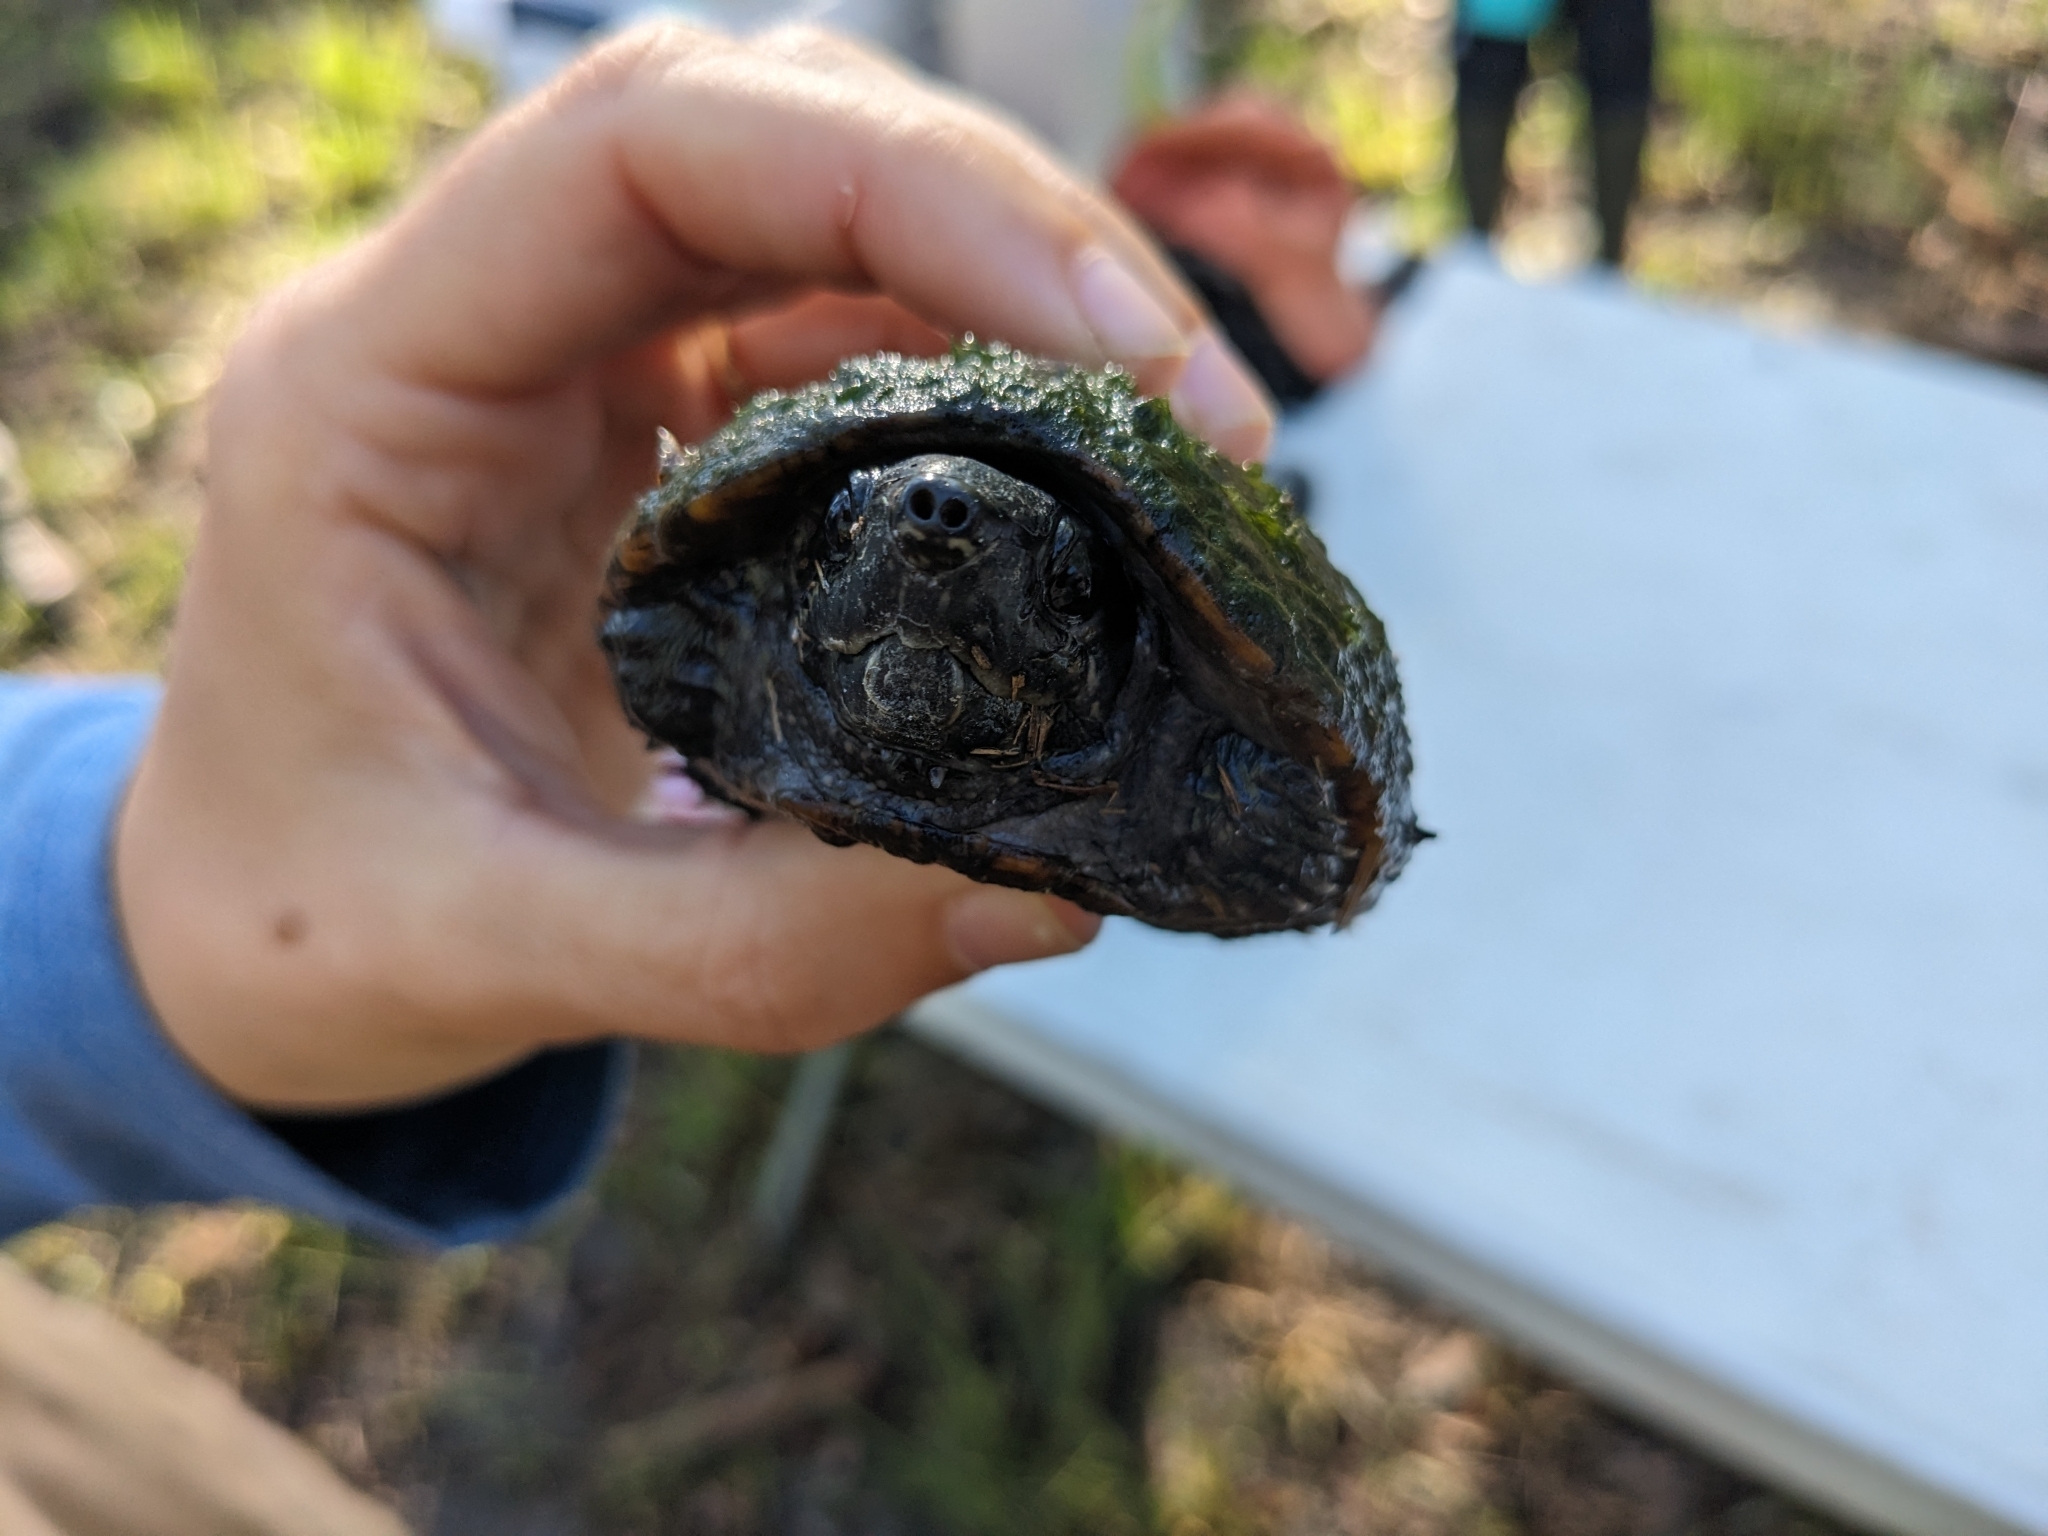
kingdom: Animalia
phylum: Chordata
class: Testudines
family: Kinosternidae
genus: Sternotherus
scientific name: Sternotherus odoratus
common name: Common musk turtle
